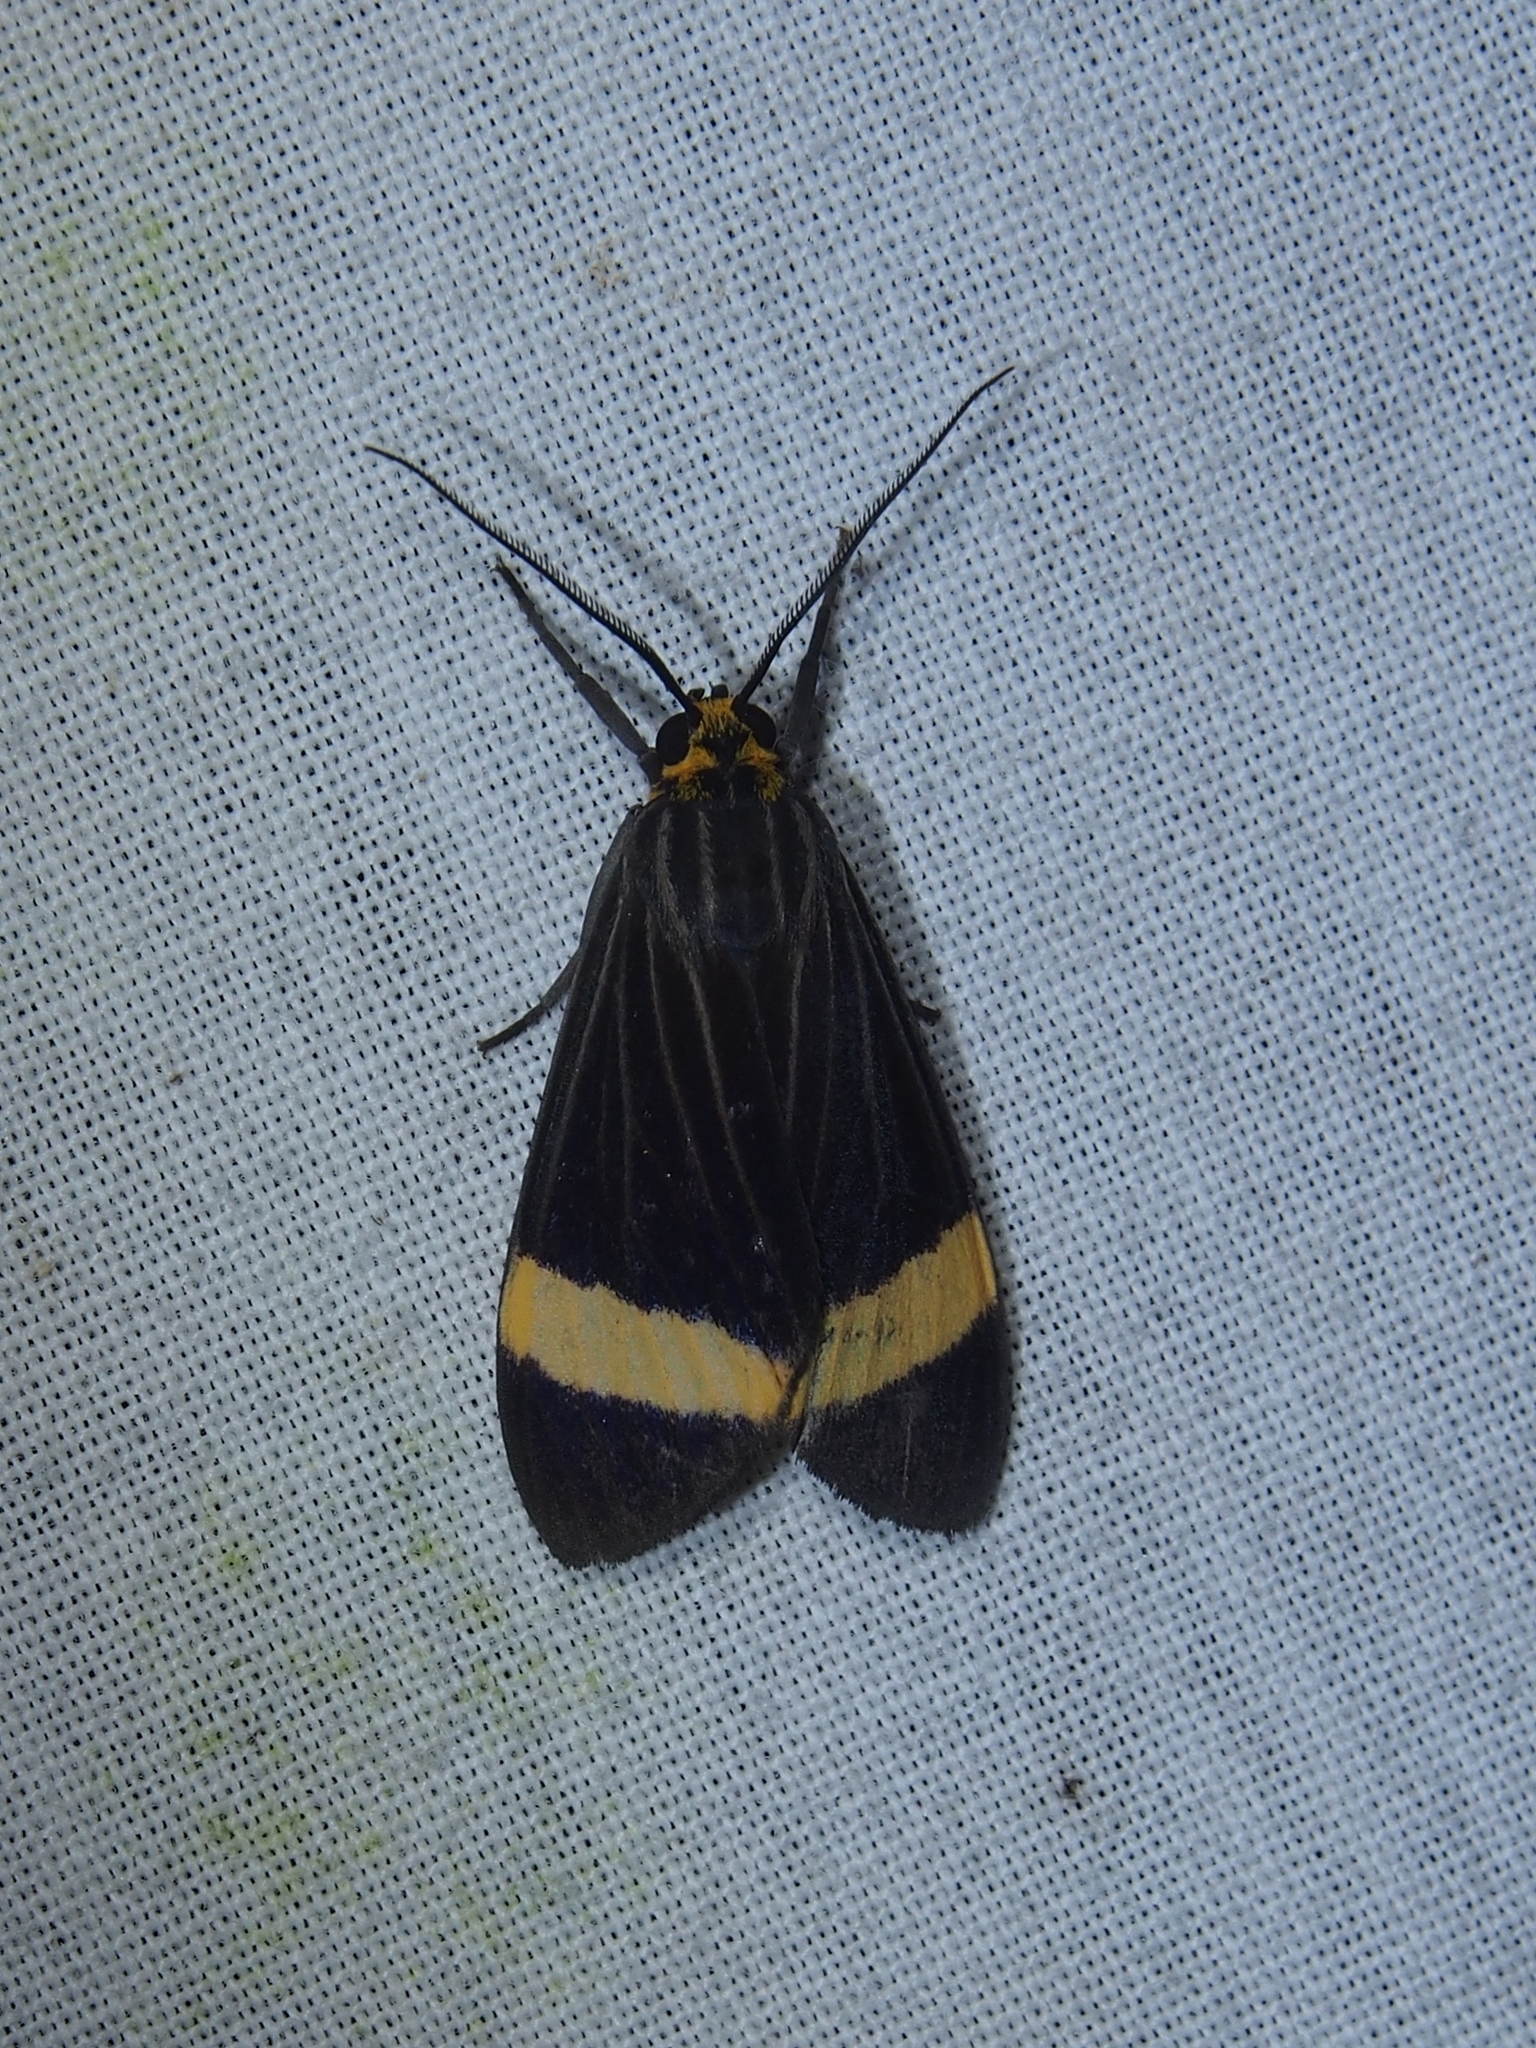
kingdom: Animalia
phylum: Arthropoda
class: Insecta
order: Lepidoptera
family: Erebidae
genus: Aclytia
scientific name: Aclytia heber
